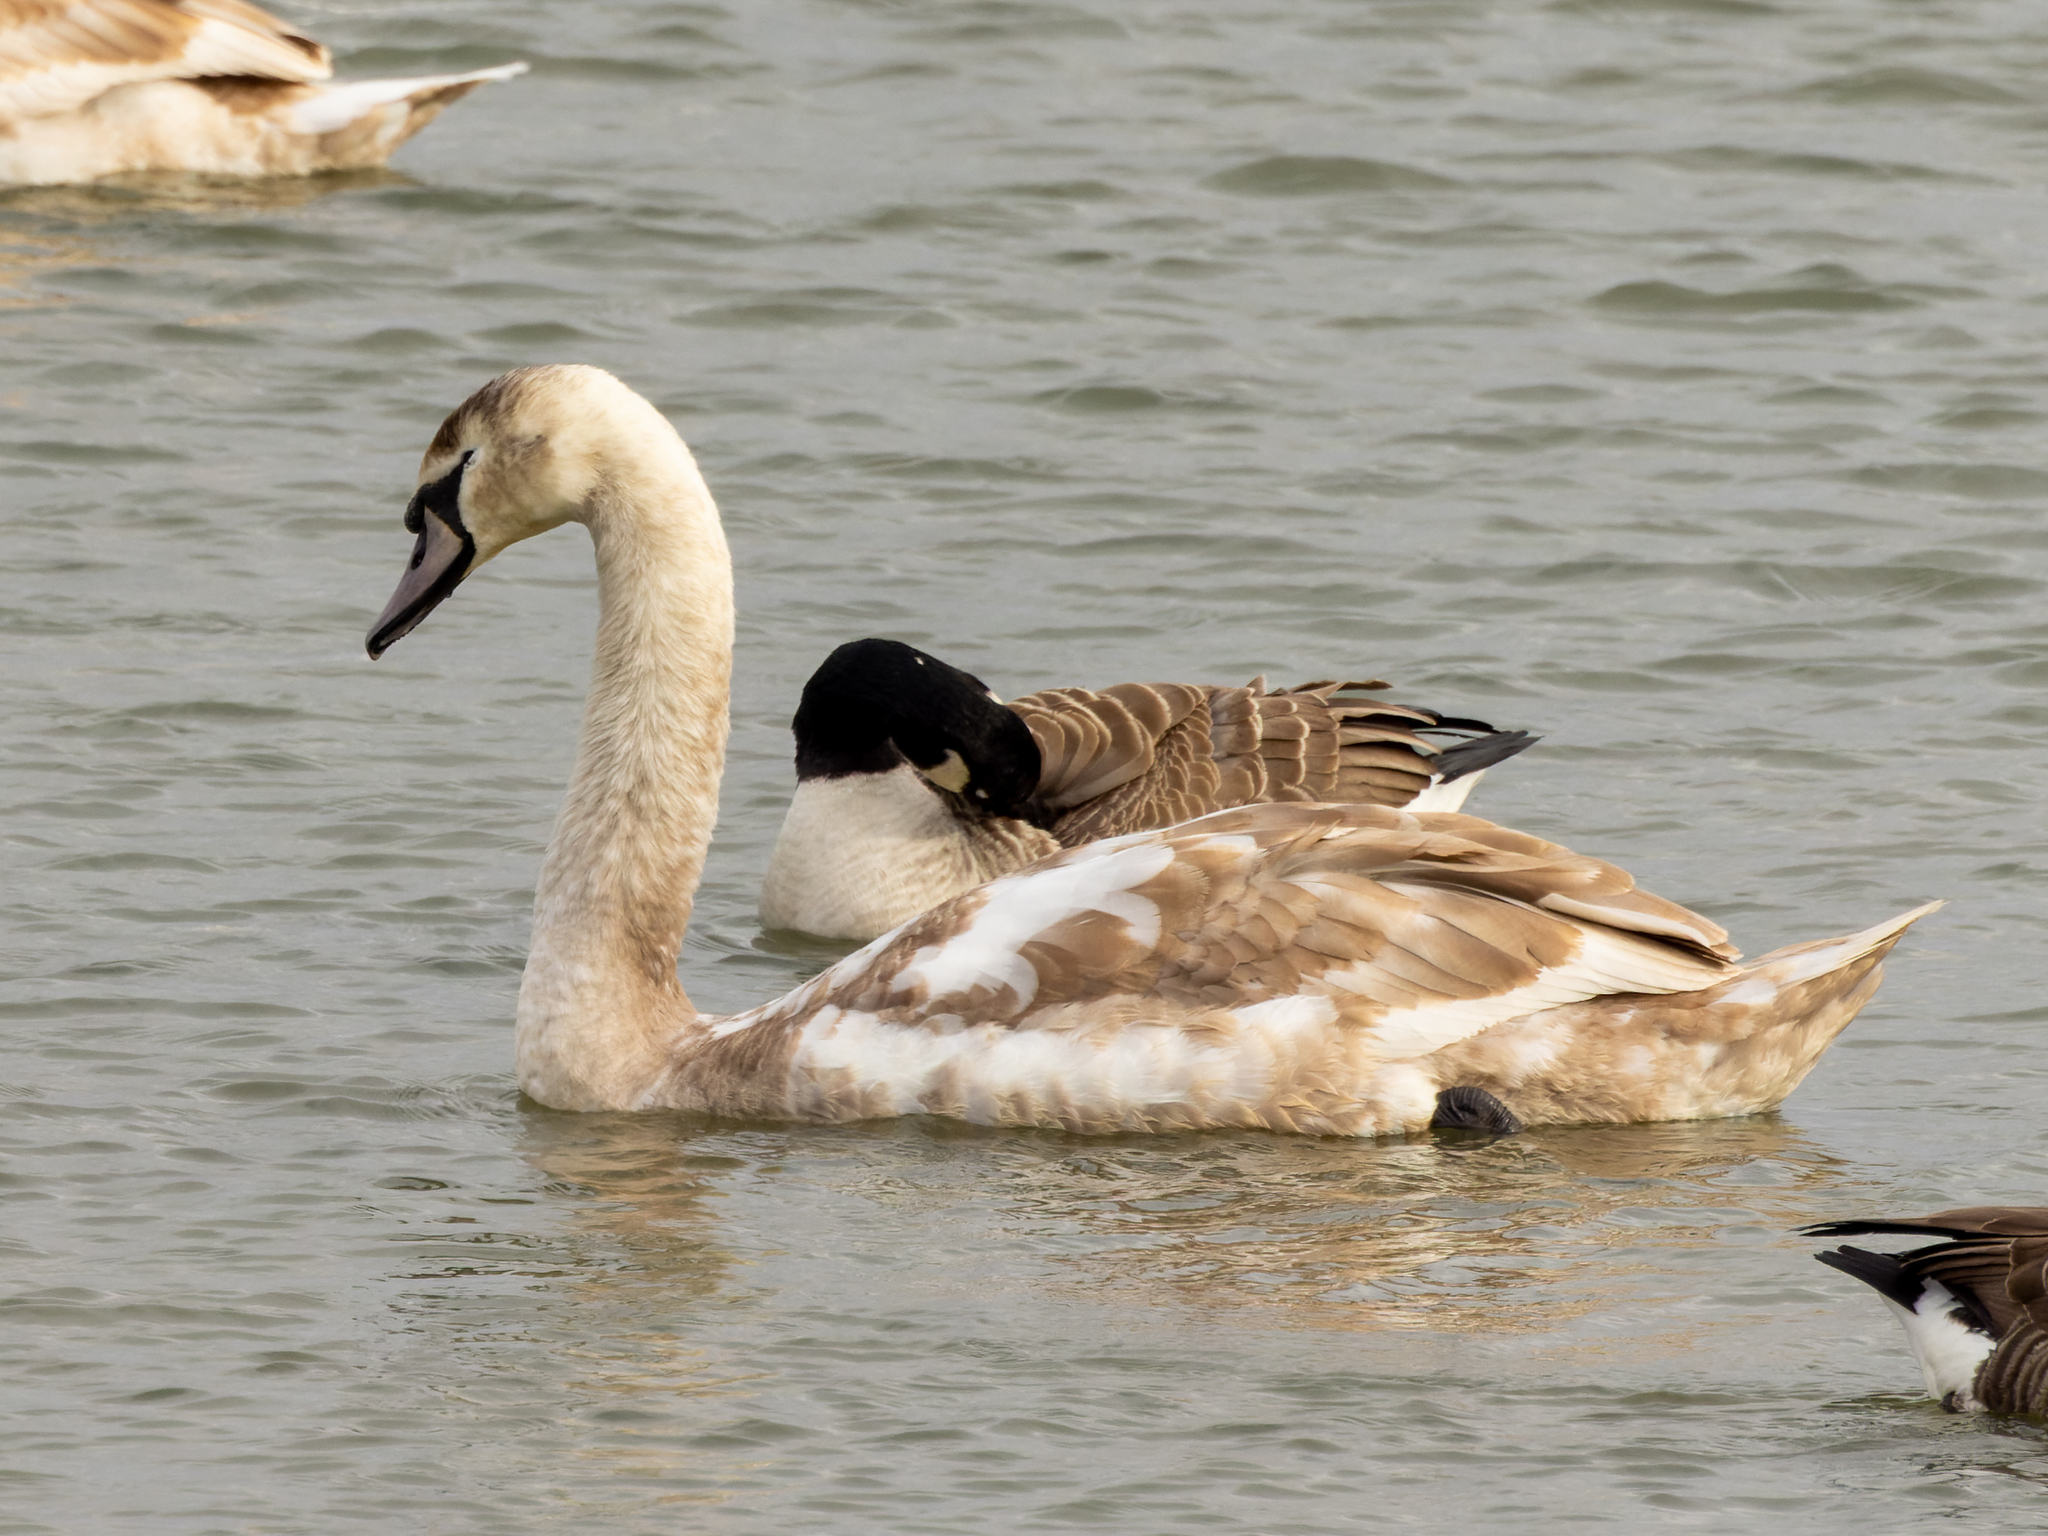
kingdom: Animalia
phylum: Chordata
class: Aves
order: Anseriformes
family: Anatidae
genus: Cygnus
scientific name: Cygnus olor
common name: Mute swan
